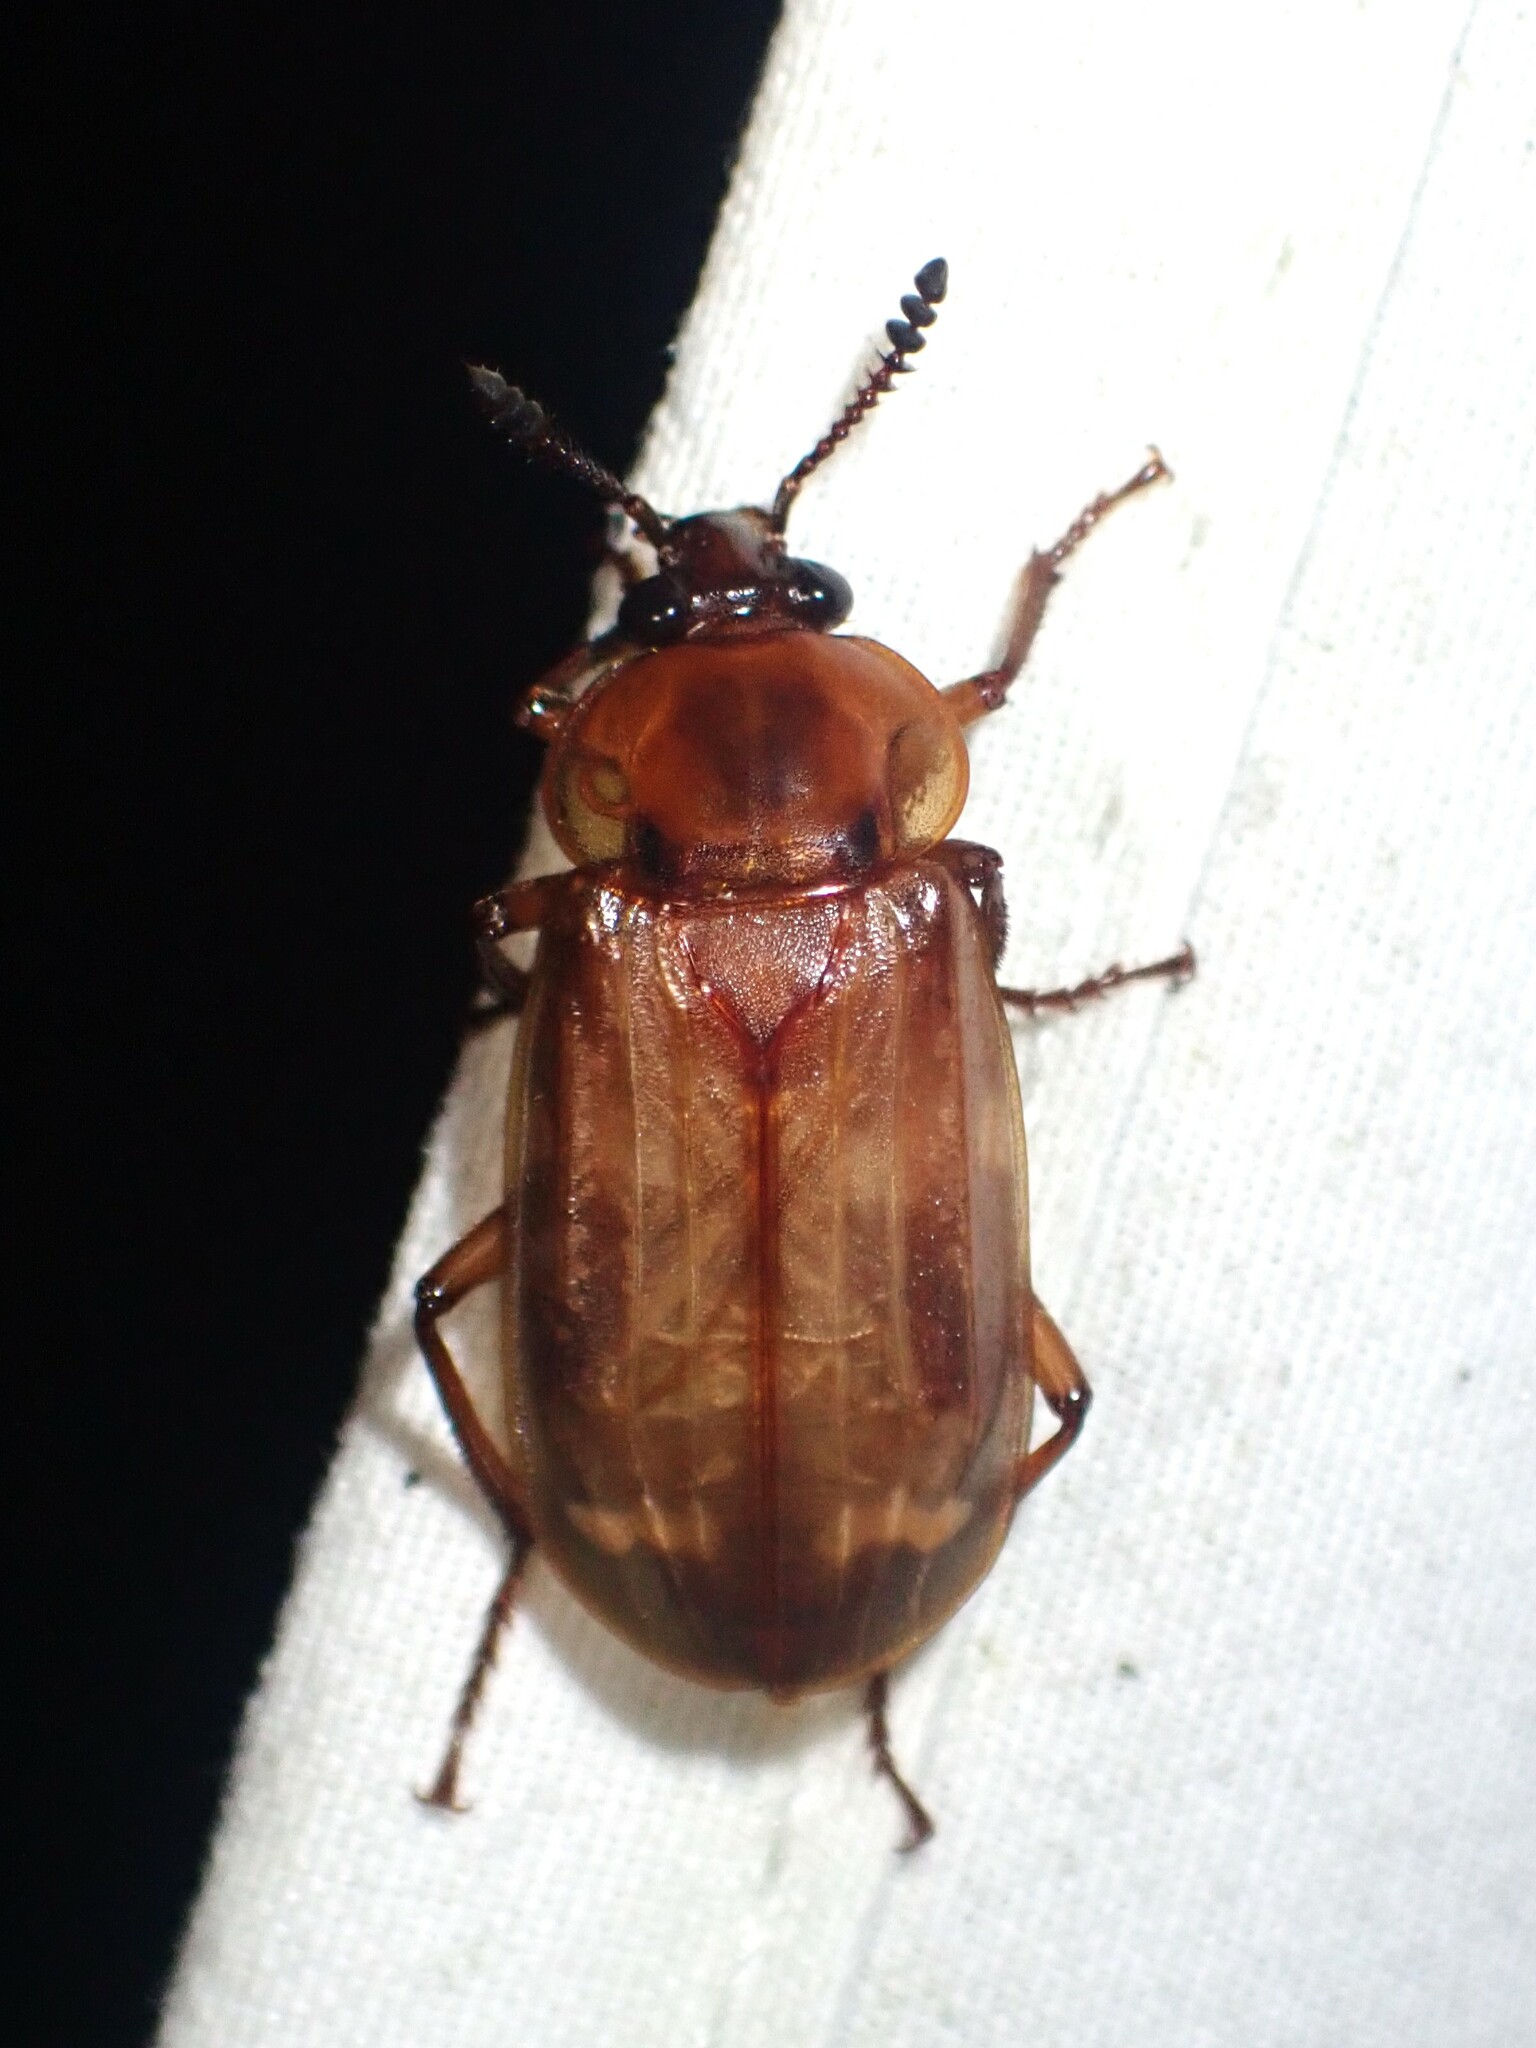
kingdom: Animalia
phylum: Arthropoda
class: Insecta
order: Coleoptera
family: Staphylinidae
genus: Necrodes
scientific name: Necrodes surinamensis
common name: Red-lined carrion beetle
